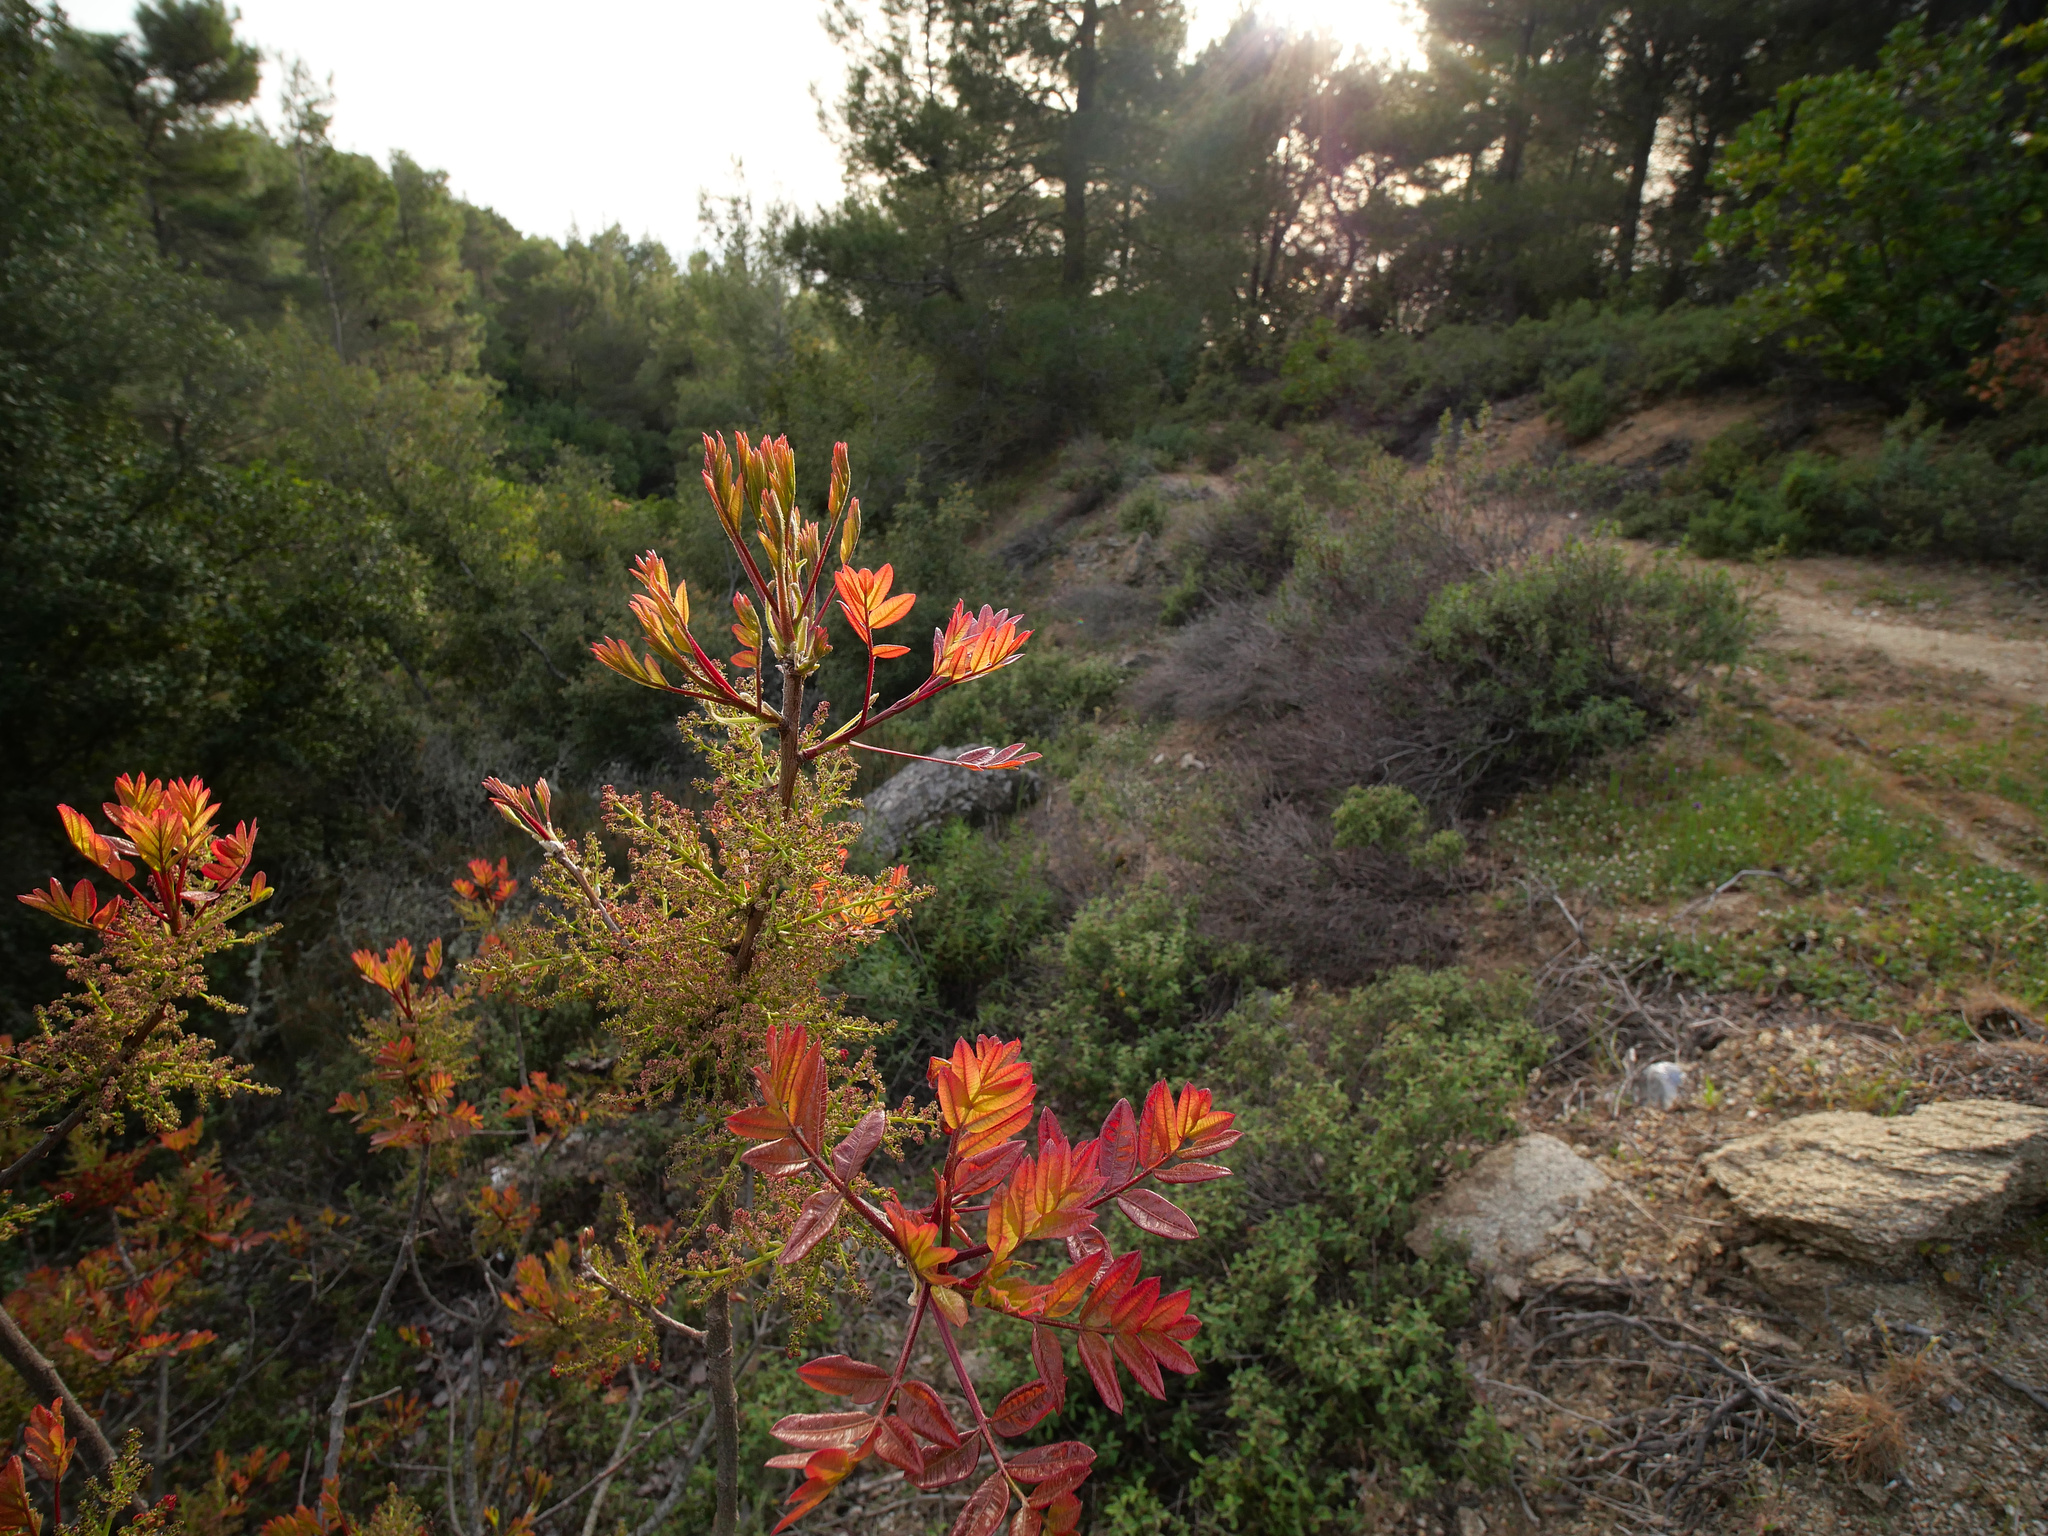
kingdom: Plantae
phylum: Tracheophyta
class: Magnoliopsida
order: Sapindales
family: Anacardiaceae
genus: Pistacia
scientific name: Pistacia terebinthus
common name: Terebinth
